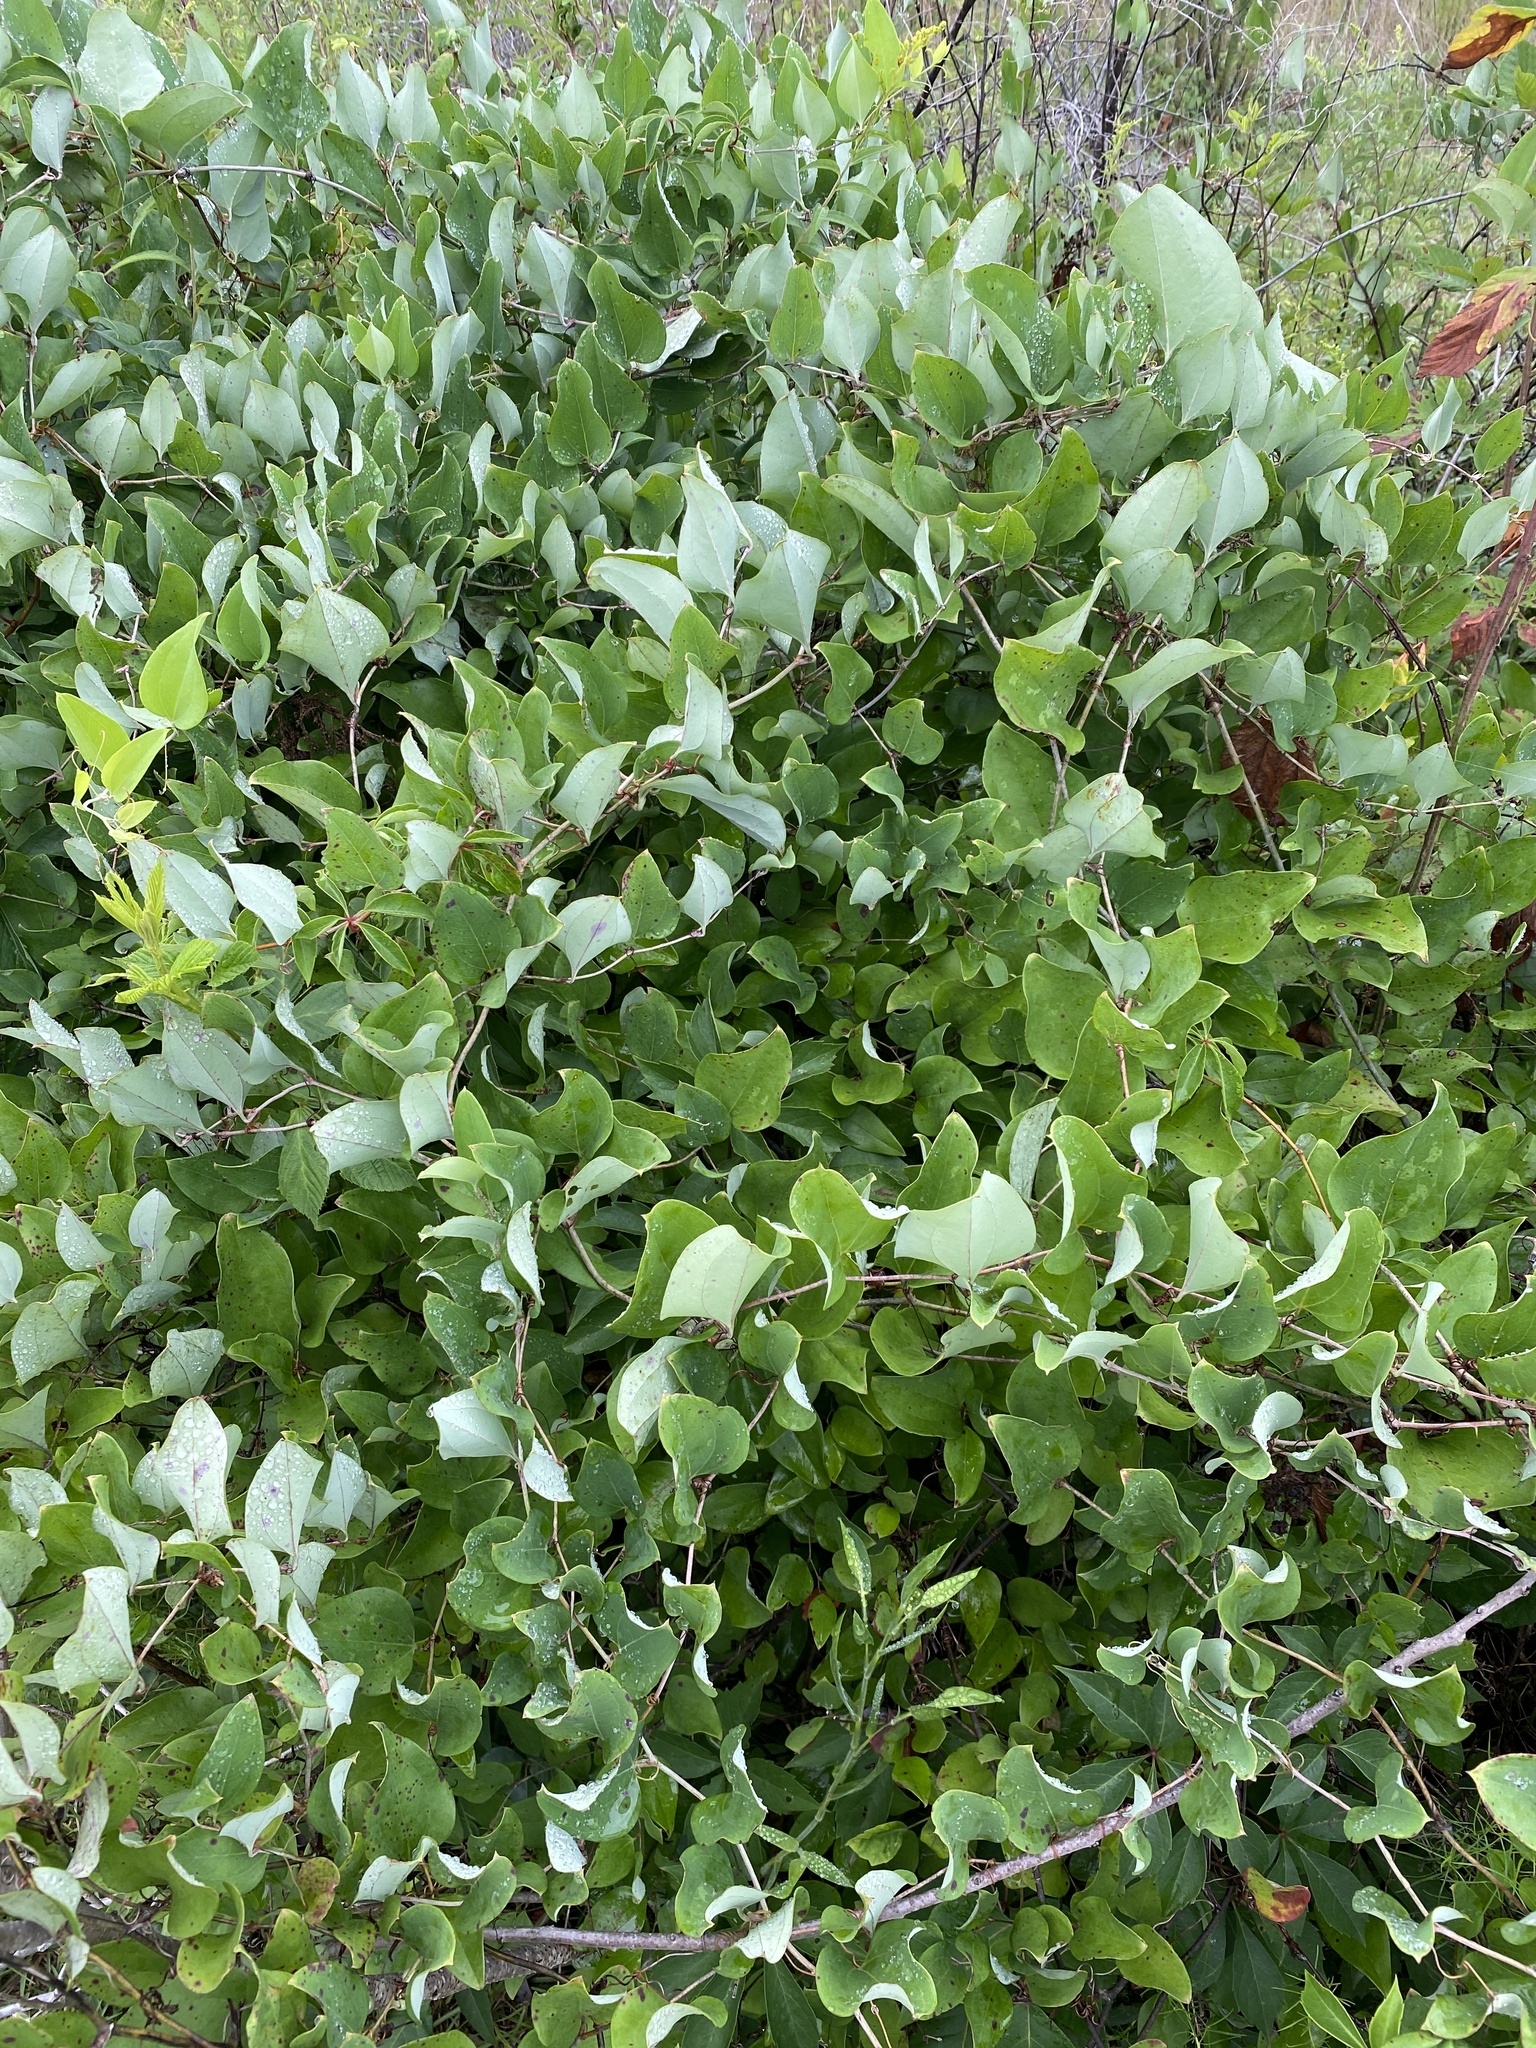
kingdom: Plantae
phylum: Tracheophyta
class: Liliopsida
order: Liliales
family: Smilacaceae
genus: Smilax
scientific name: Smilax glauca
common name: Cat greenbrier
